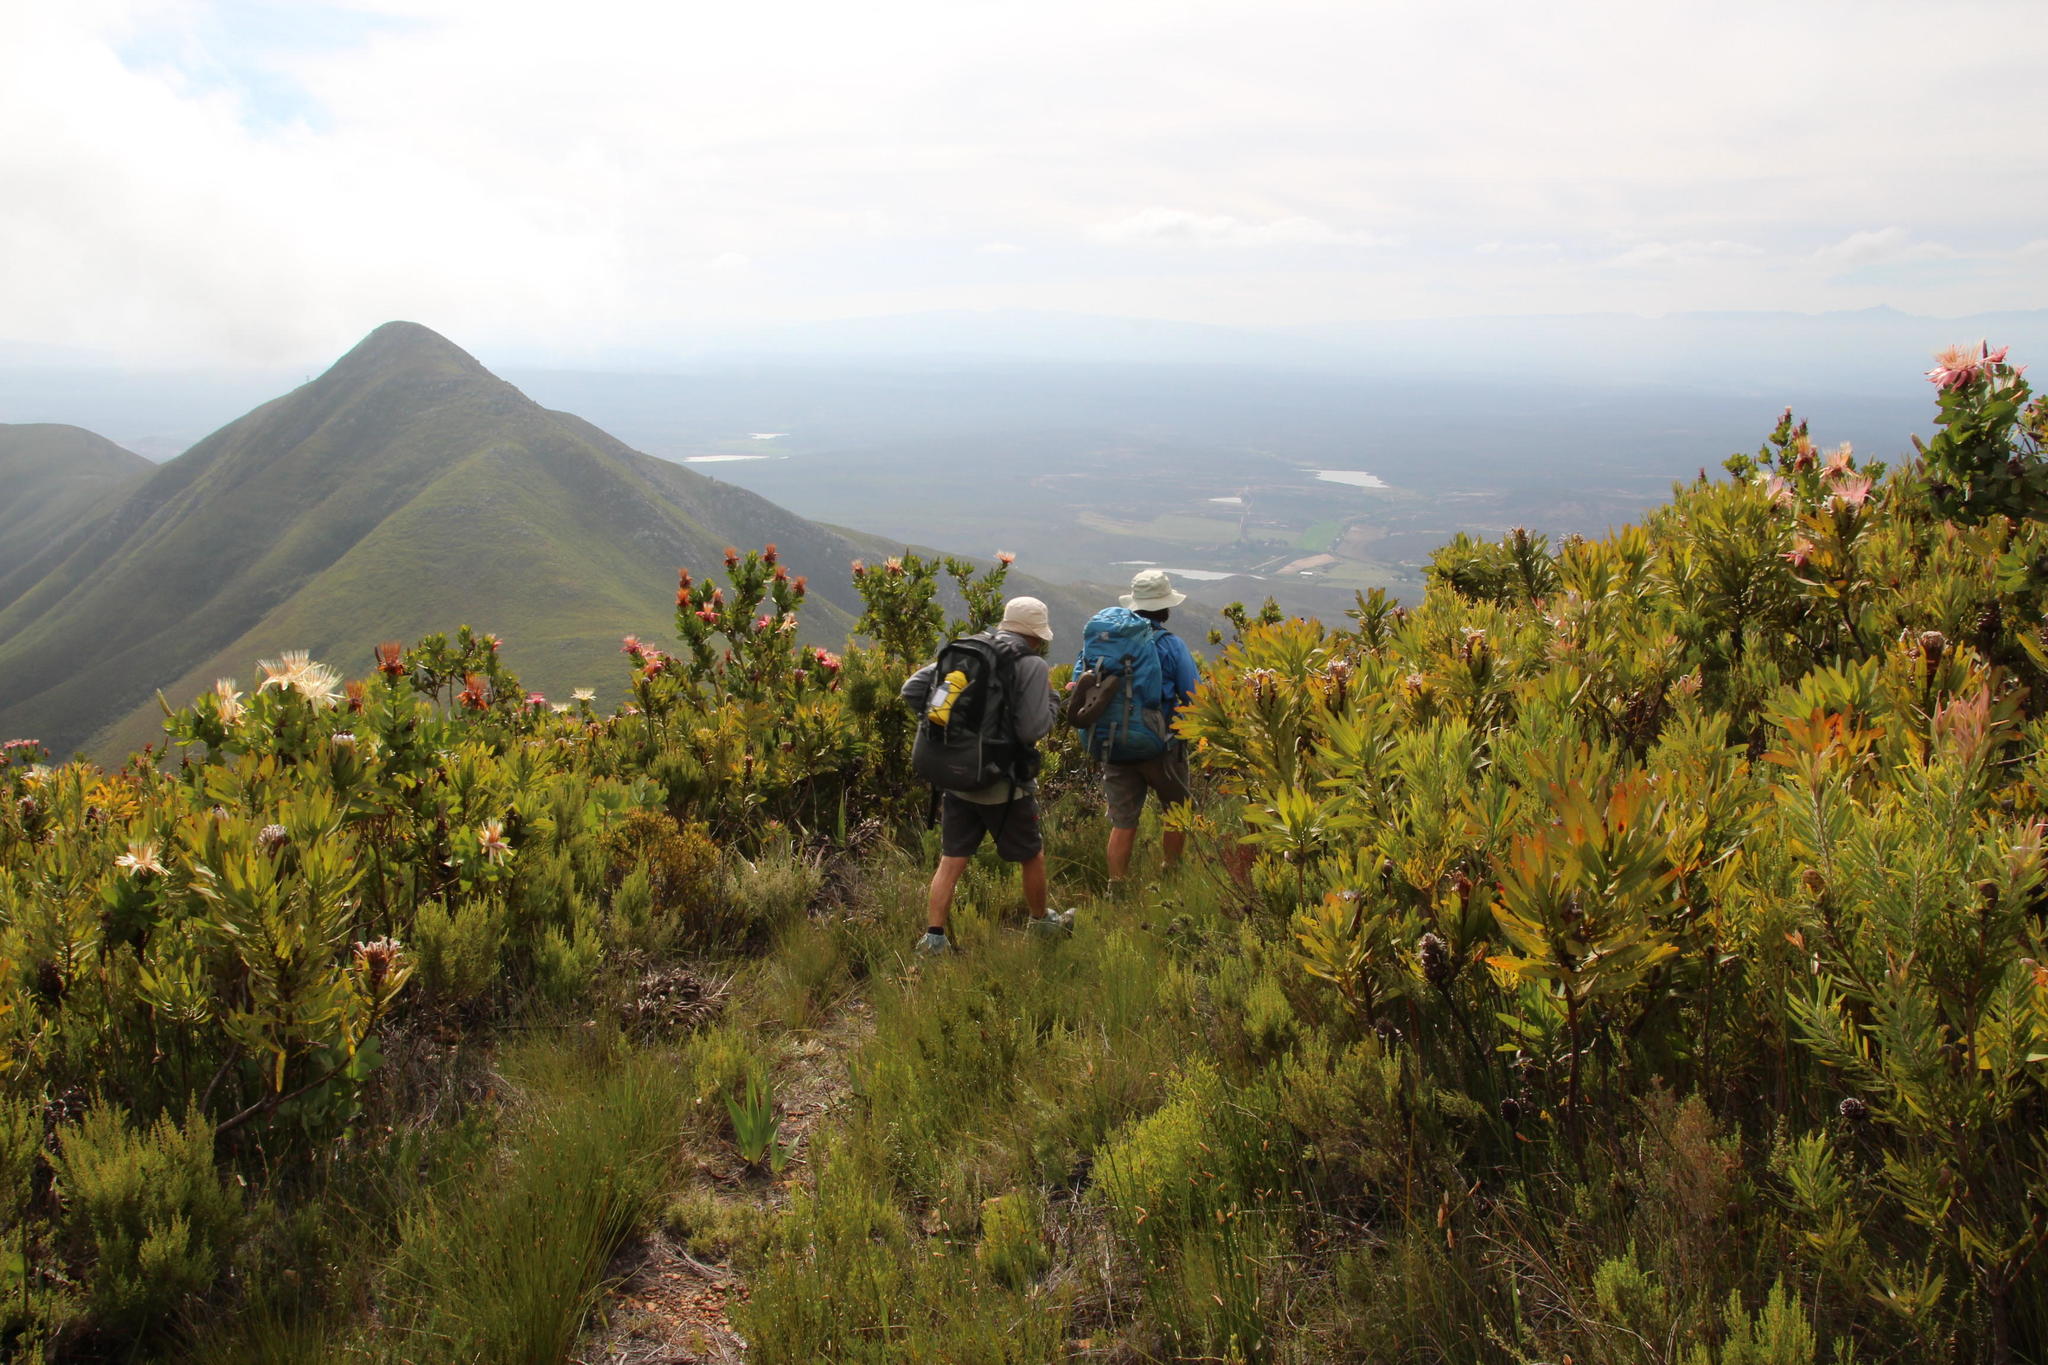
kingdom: Plantae
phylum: Tracheophyta
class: Magnoliopsida
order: Proteales
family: Proteaceae
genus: Protea
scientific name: Protea aurea
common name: Shuttlecock sugarbush
